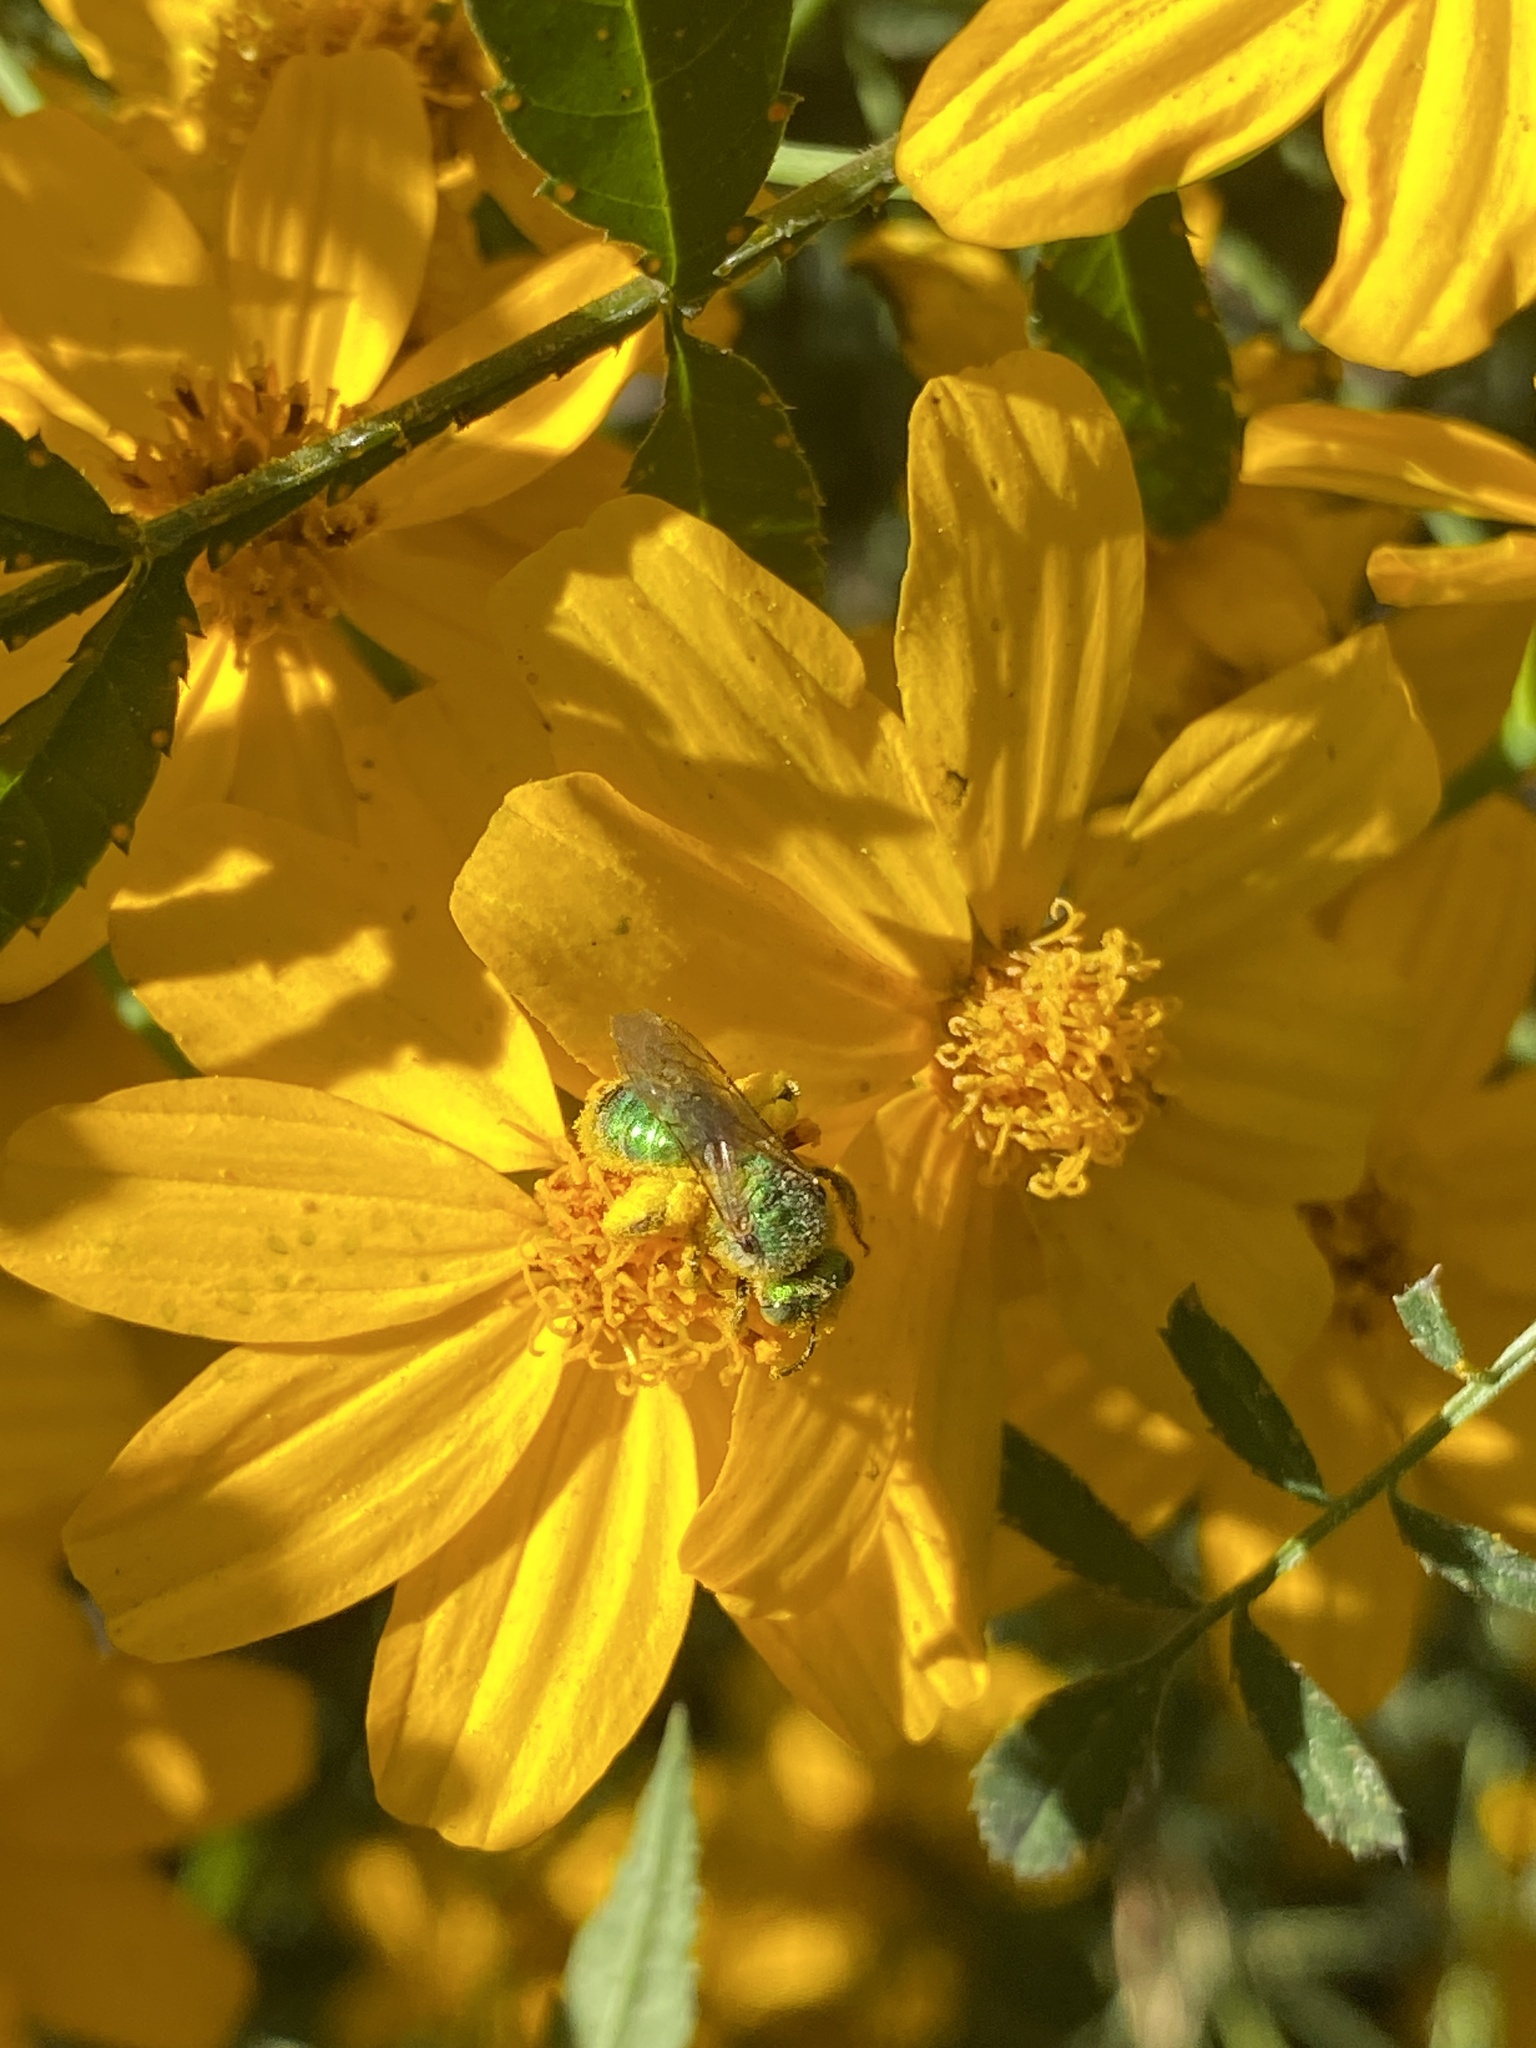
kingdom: Animalia
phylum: Arthropoda
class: Insecta
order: Hymenoptera
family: Halictidae
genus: Agapostemon
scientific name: Agapostemon texanus
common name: Texas striped sweat bee
